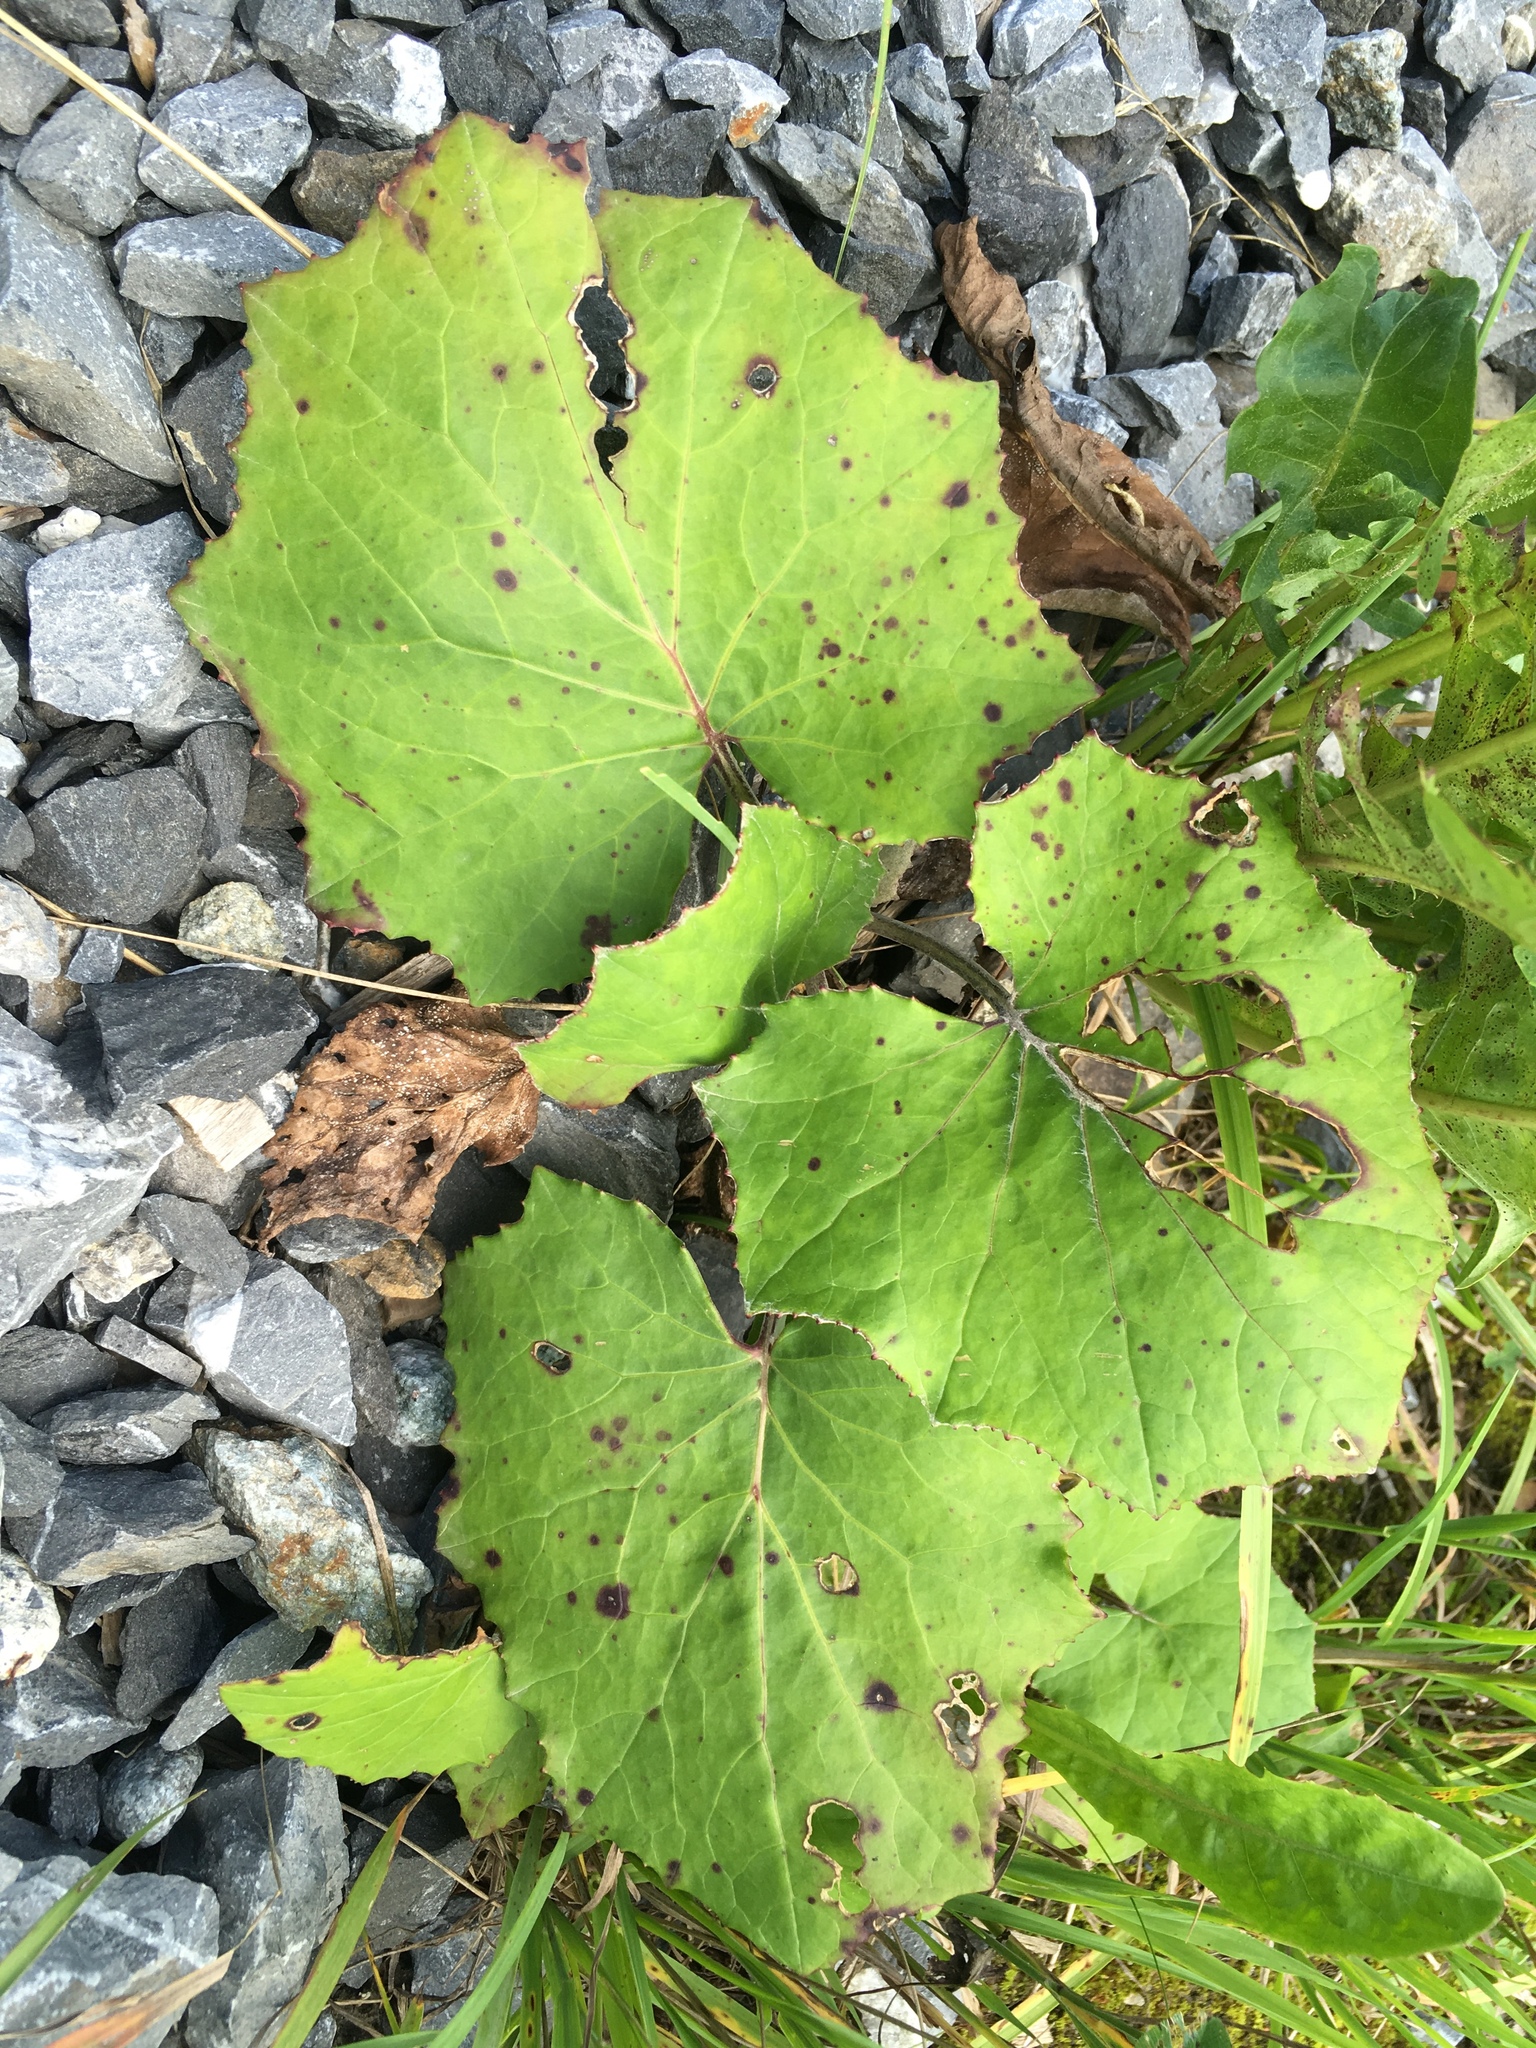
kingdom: Plantae
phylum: Tracheophyta
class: Magnoliopsida
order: Asterales
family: Asteraceae
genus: Tussilago
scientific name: Tussilago farfara
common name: Coltsfoot
